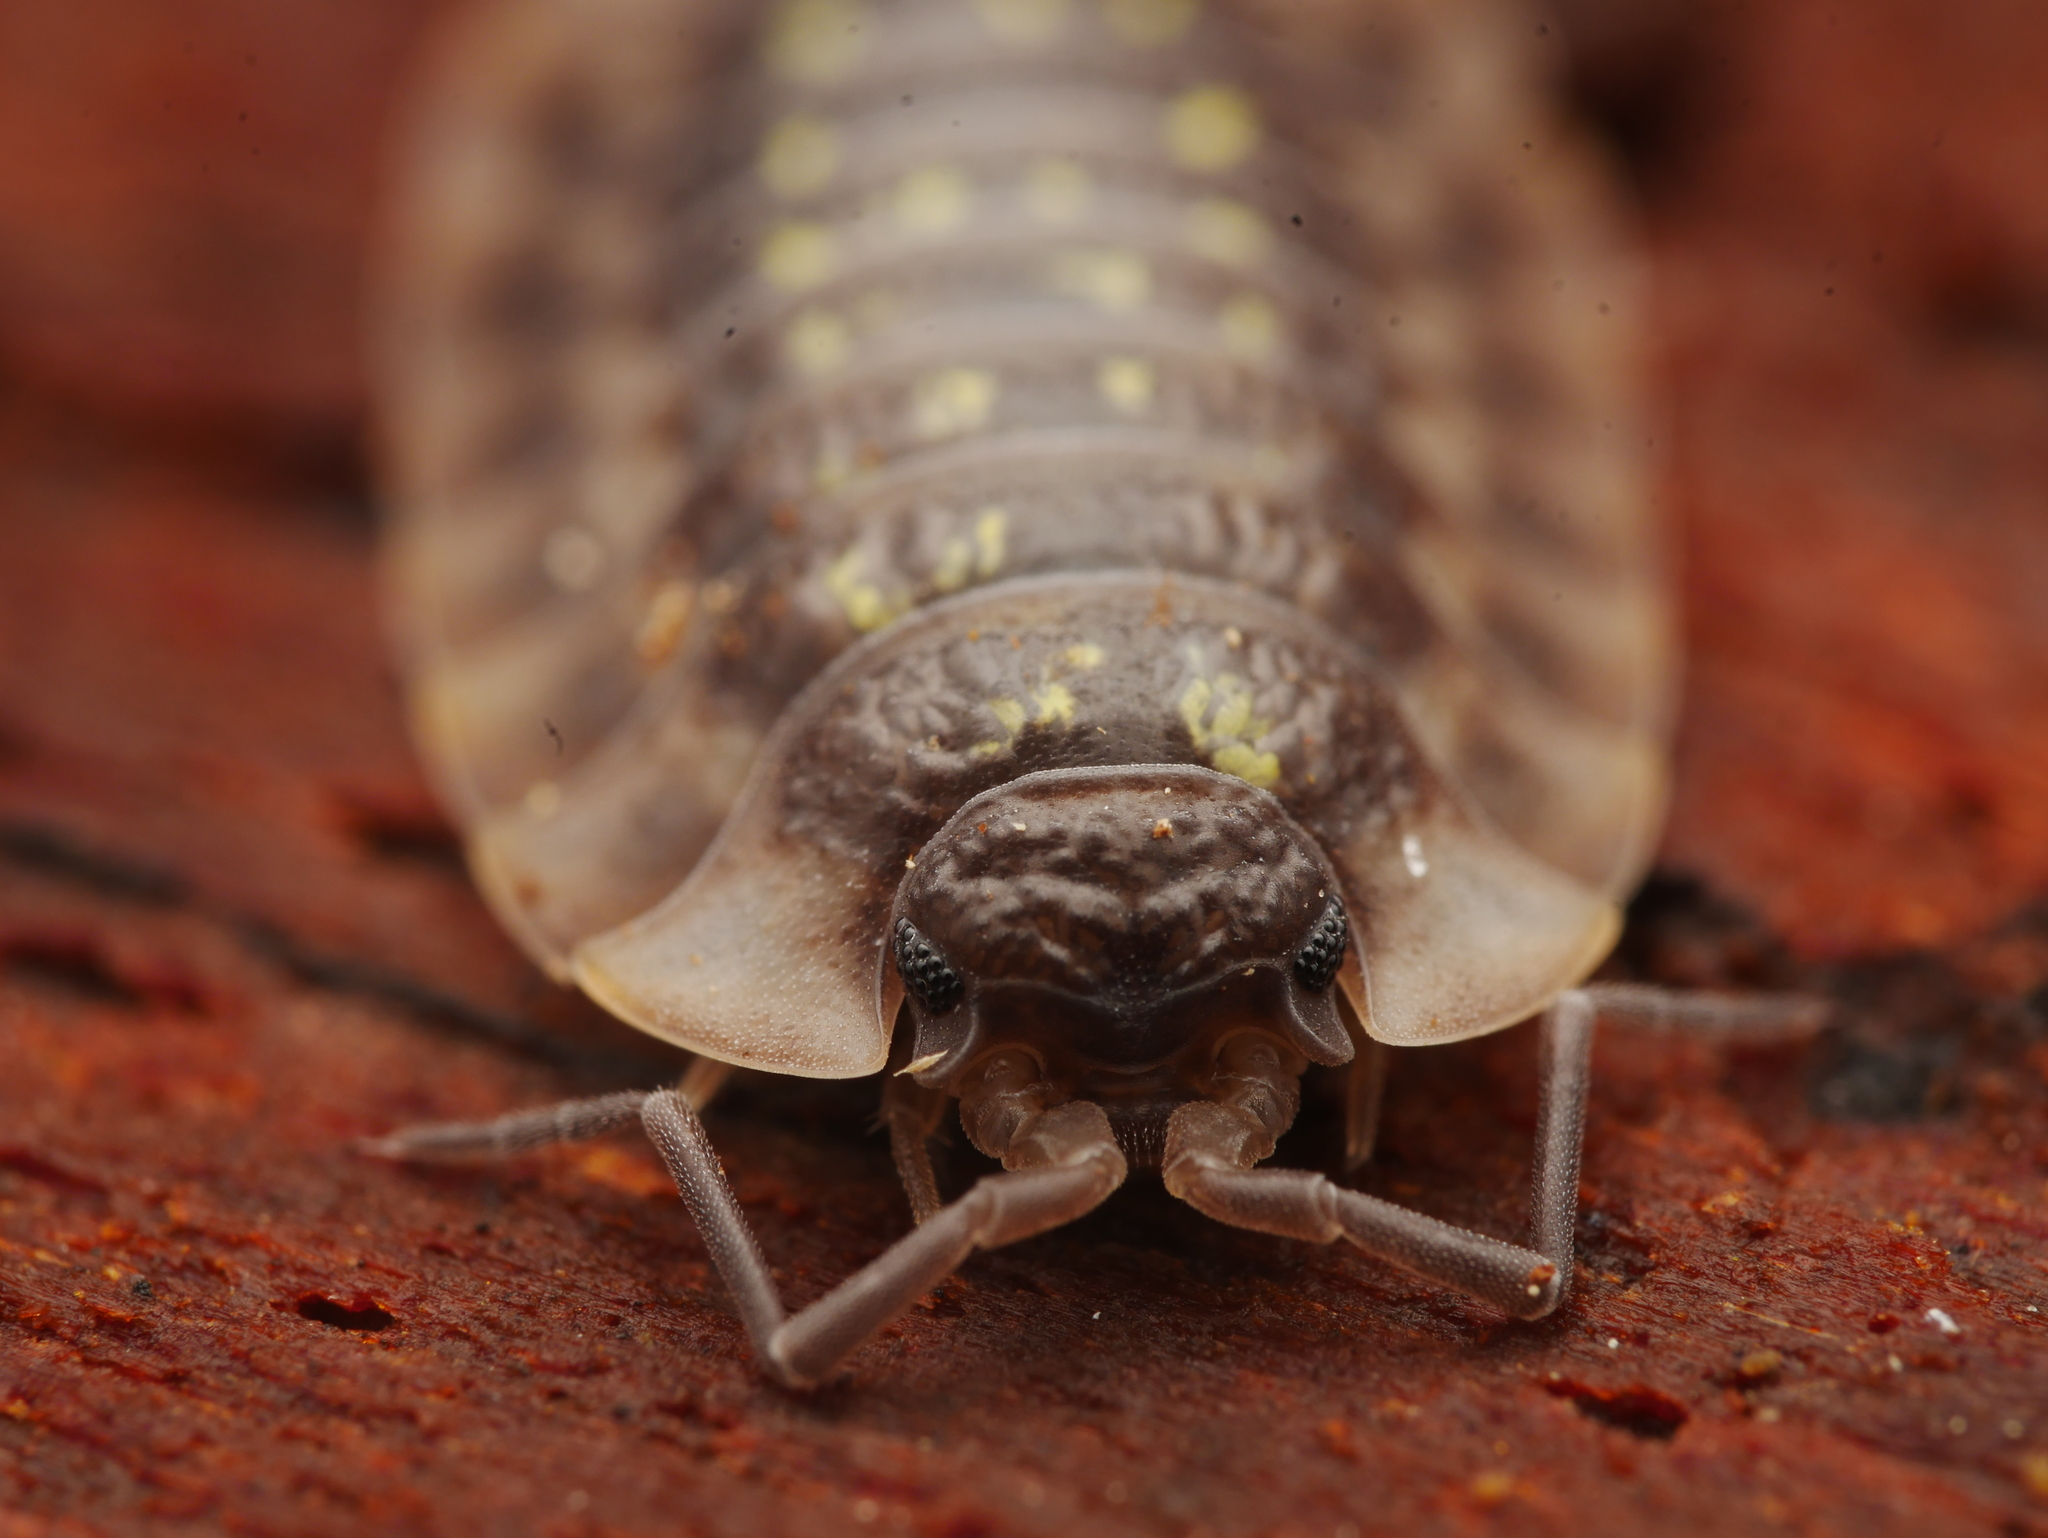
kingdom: Animalia
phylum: Arthropoda
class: Malacostraca
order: Isopoda
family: Oniscidae
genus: Oniscus
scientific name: Oniscus asellus
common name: Common shiny woodlouse
